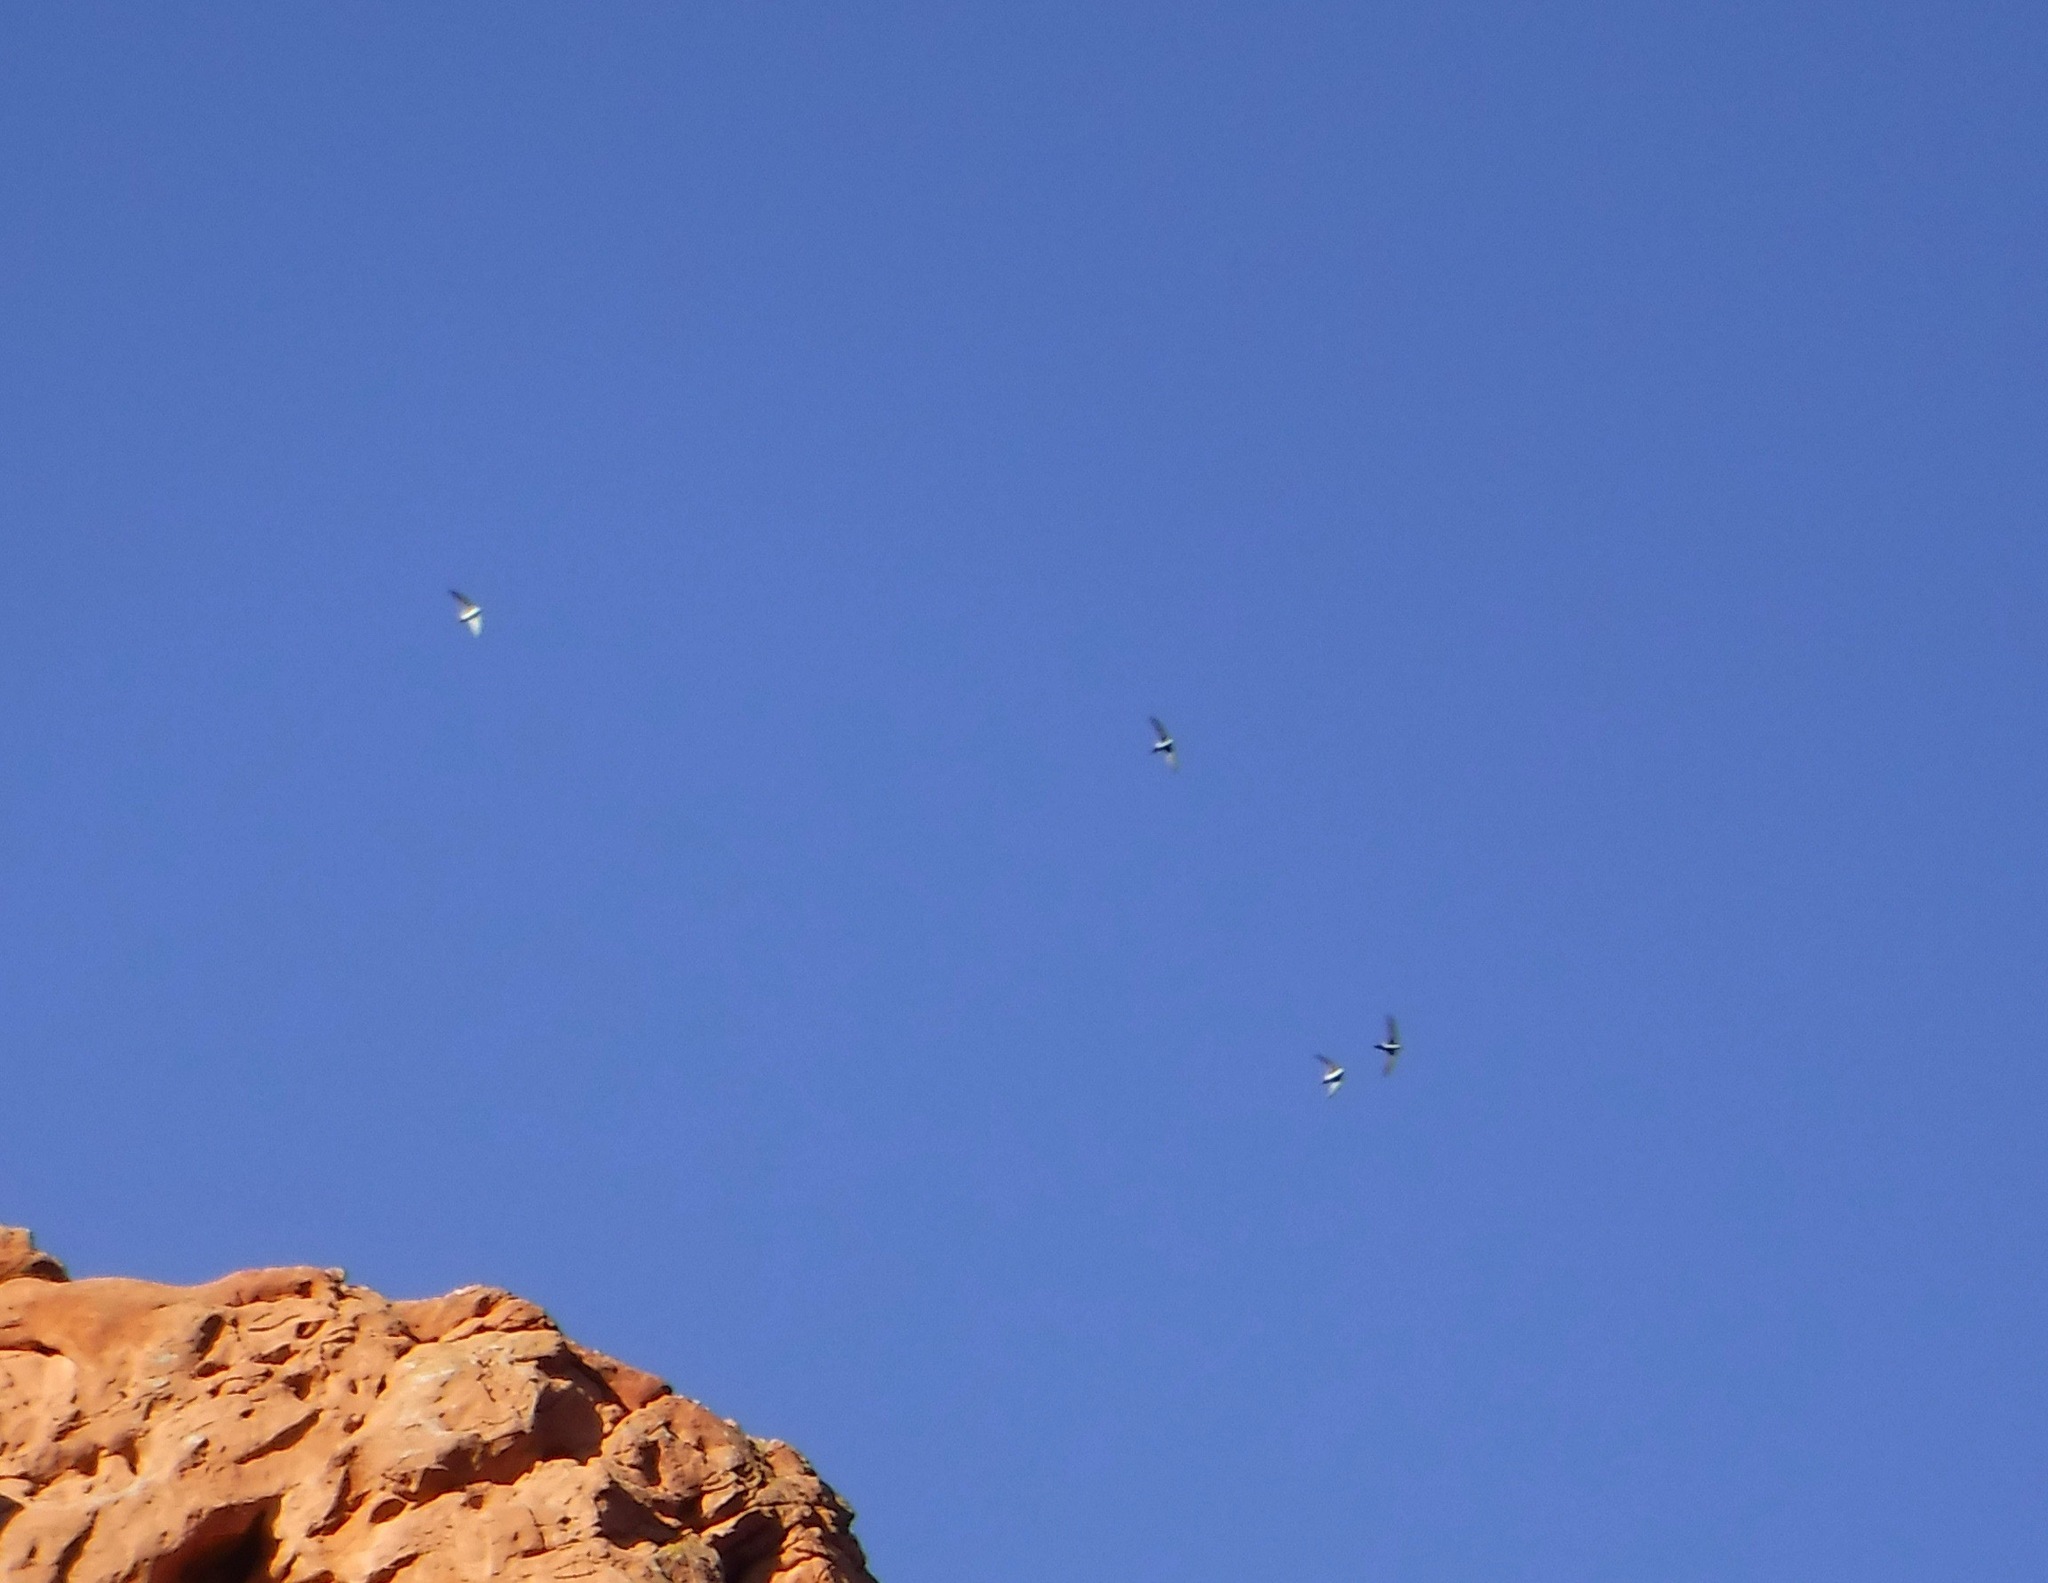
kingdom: Animalia
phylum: Chordata
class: Aves
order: Apodiformes
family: Apodidae
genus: Aeronautes
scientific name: Aeronautes saxatalis
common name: White-throated swift
